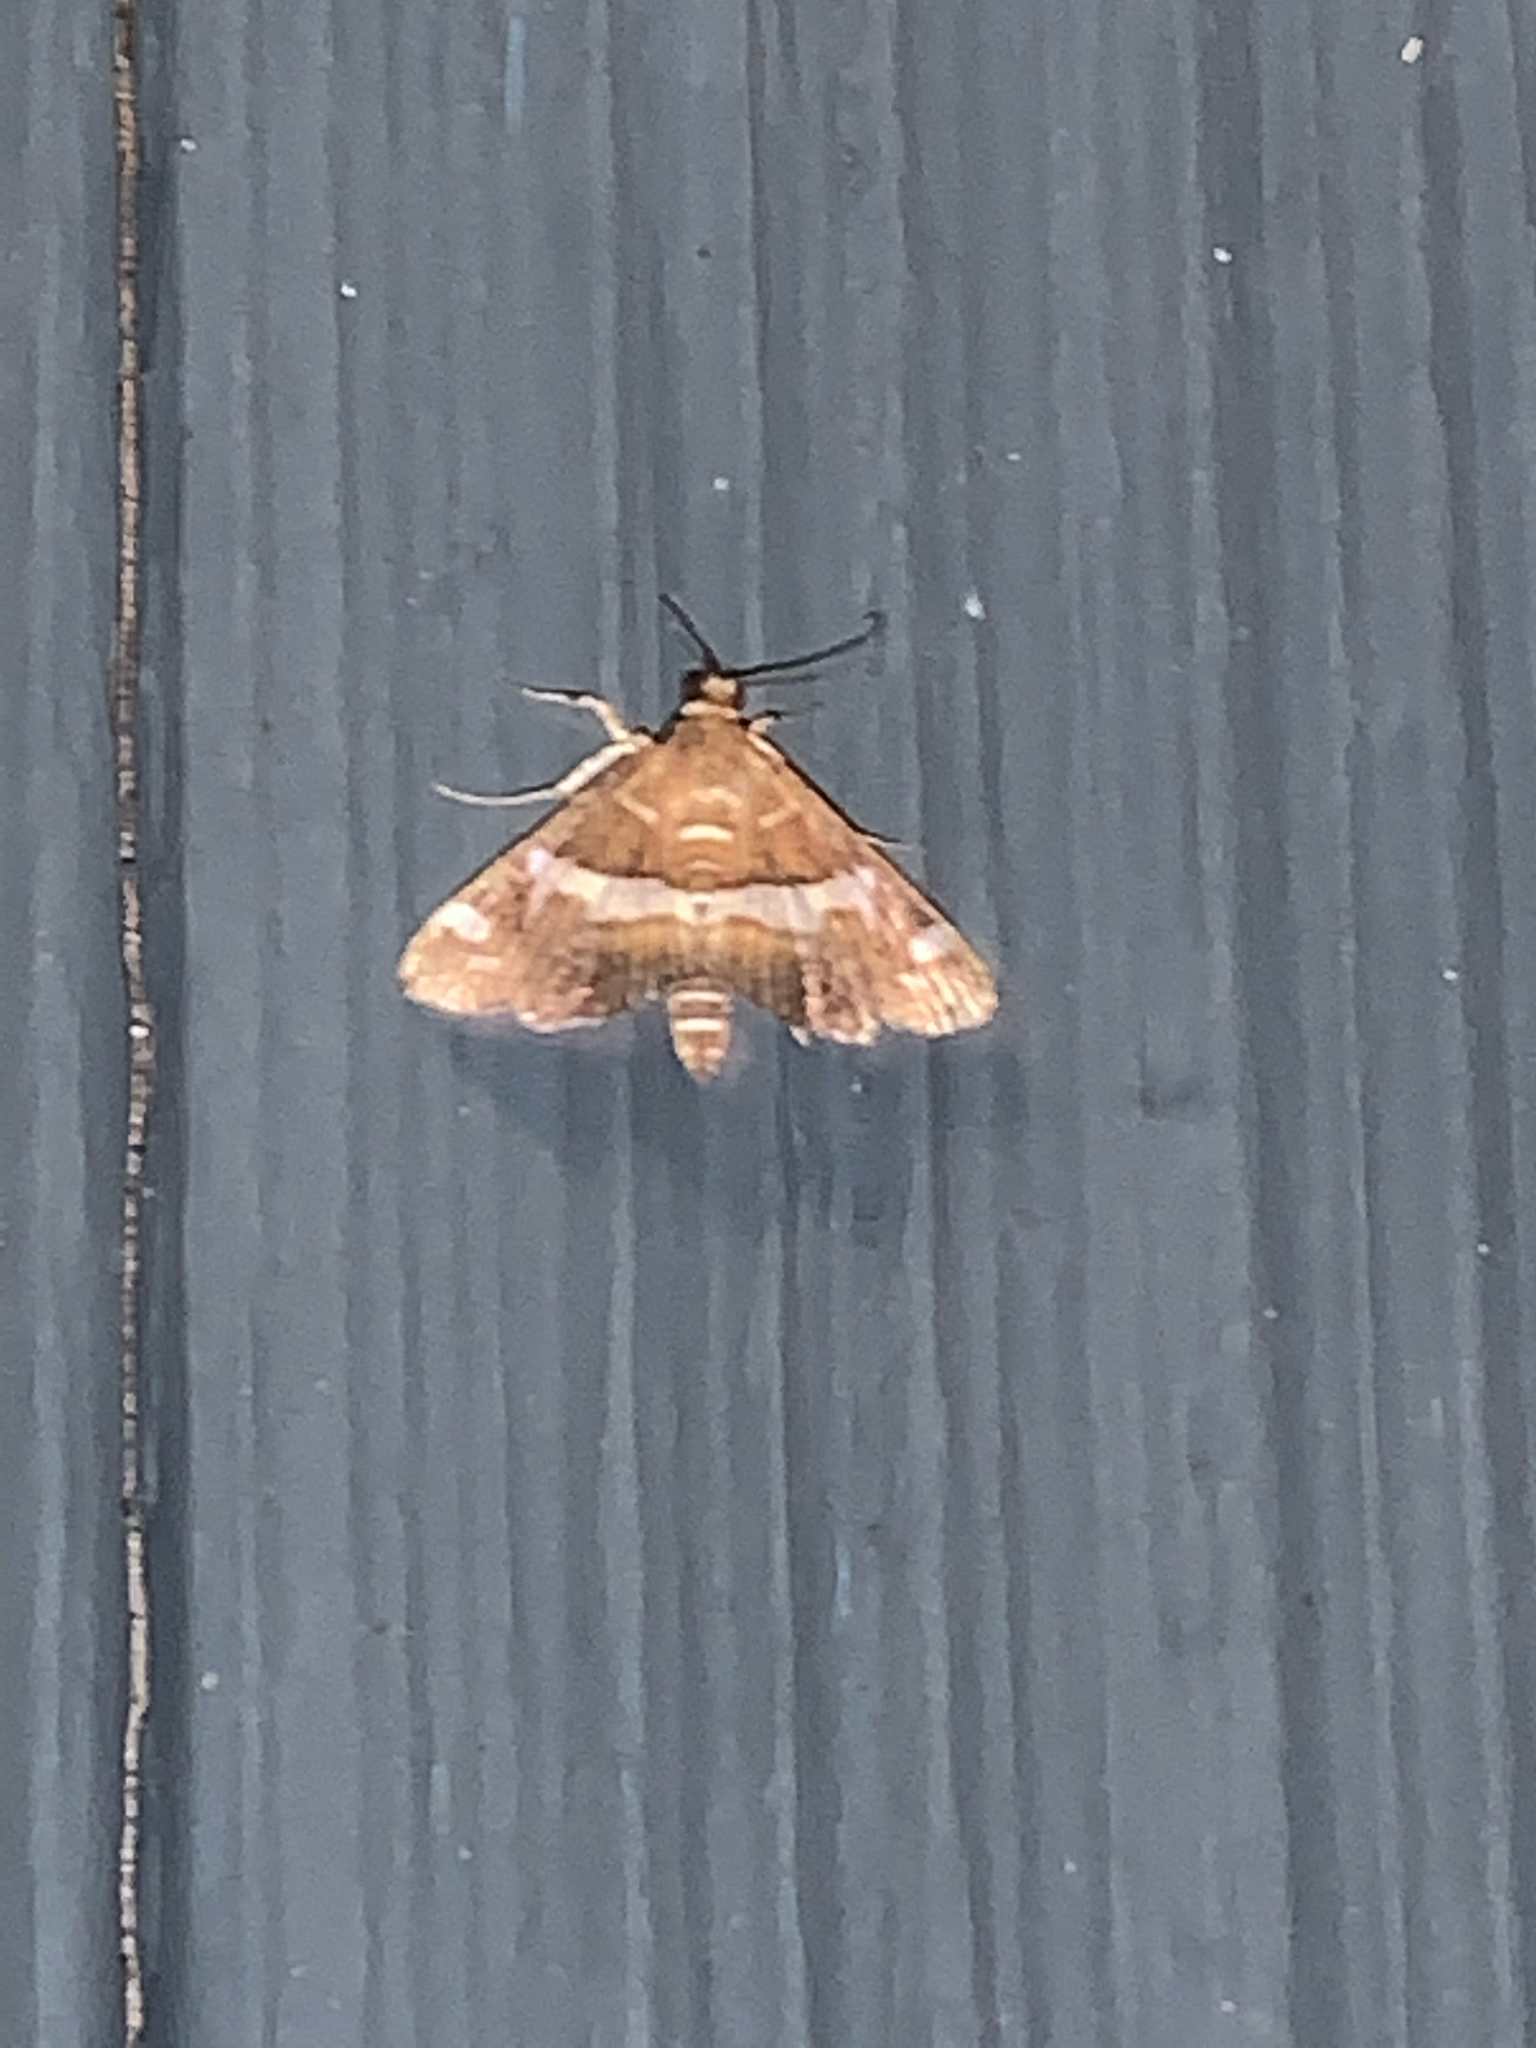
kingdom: Animalia
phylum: Arthropoda
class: Insecta
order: Lepidoptera
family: Crambidae
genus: Spoladea
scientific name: Spoladea recurvalis
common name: Beet webworm moth
